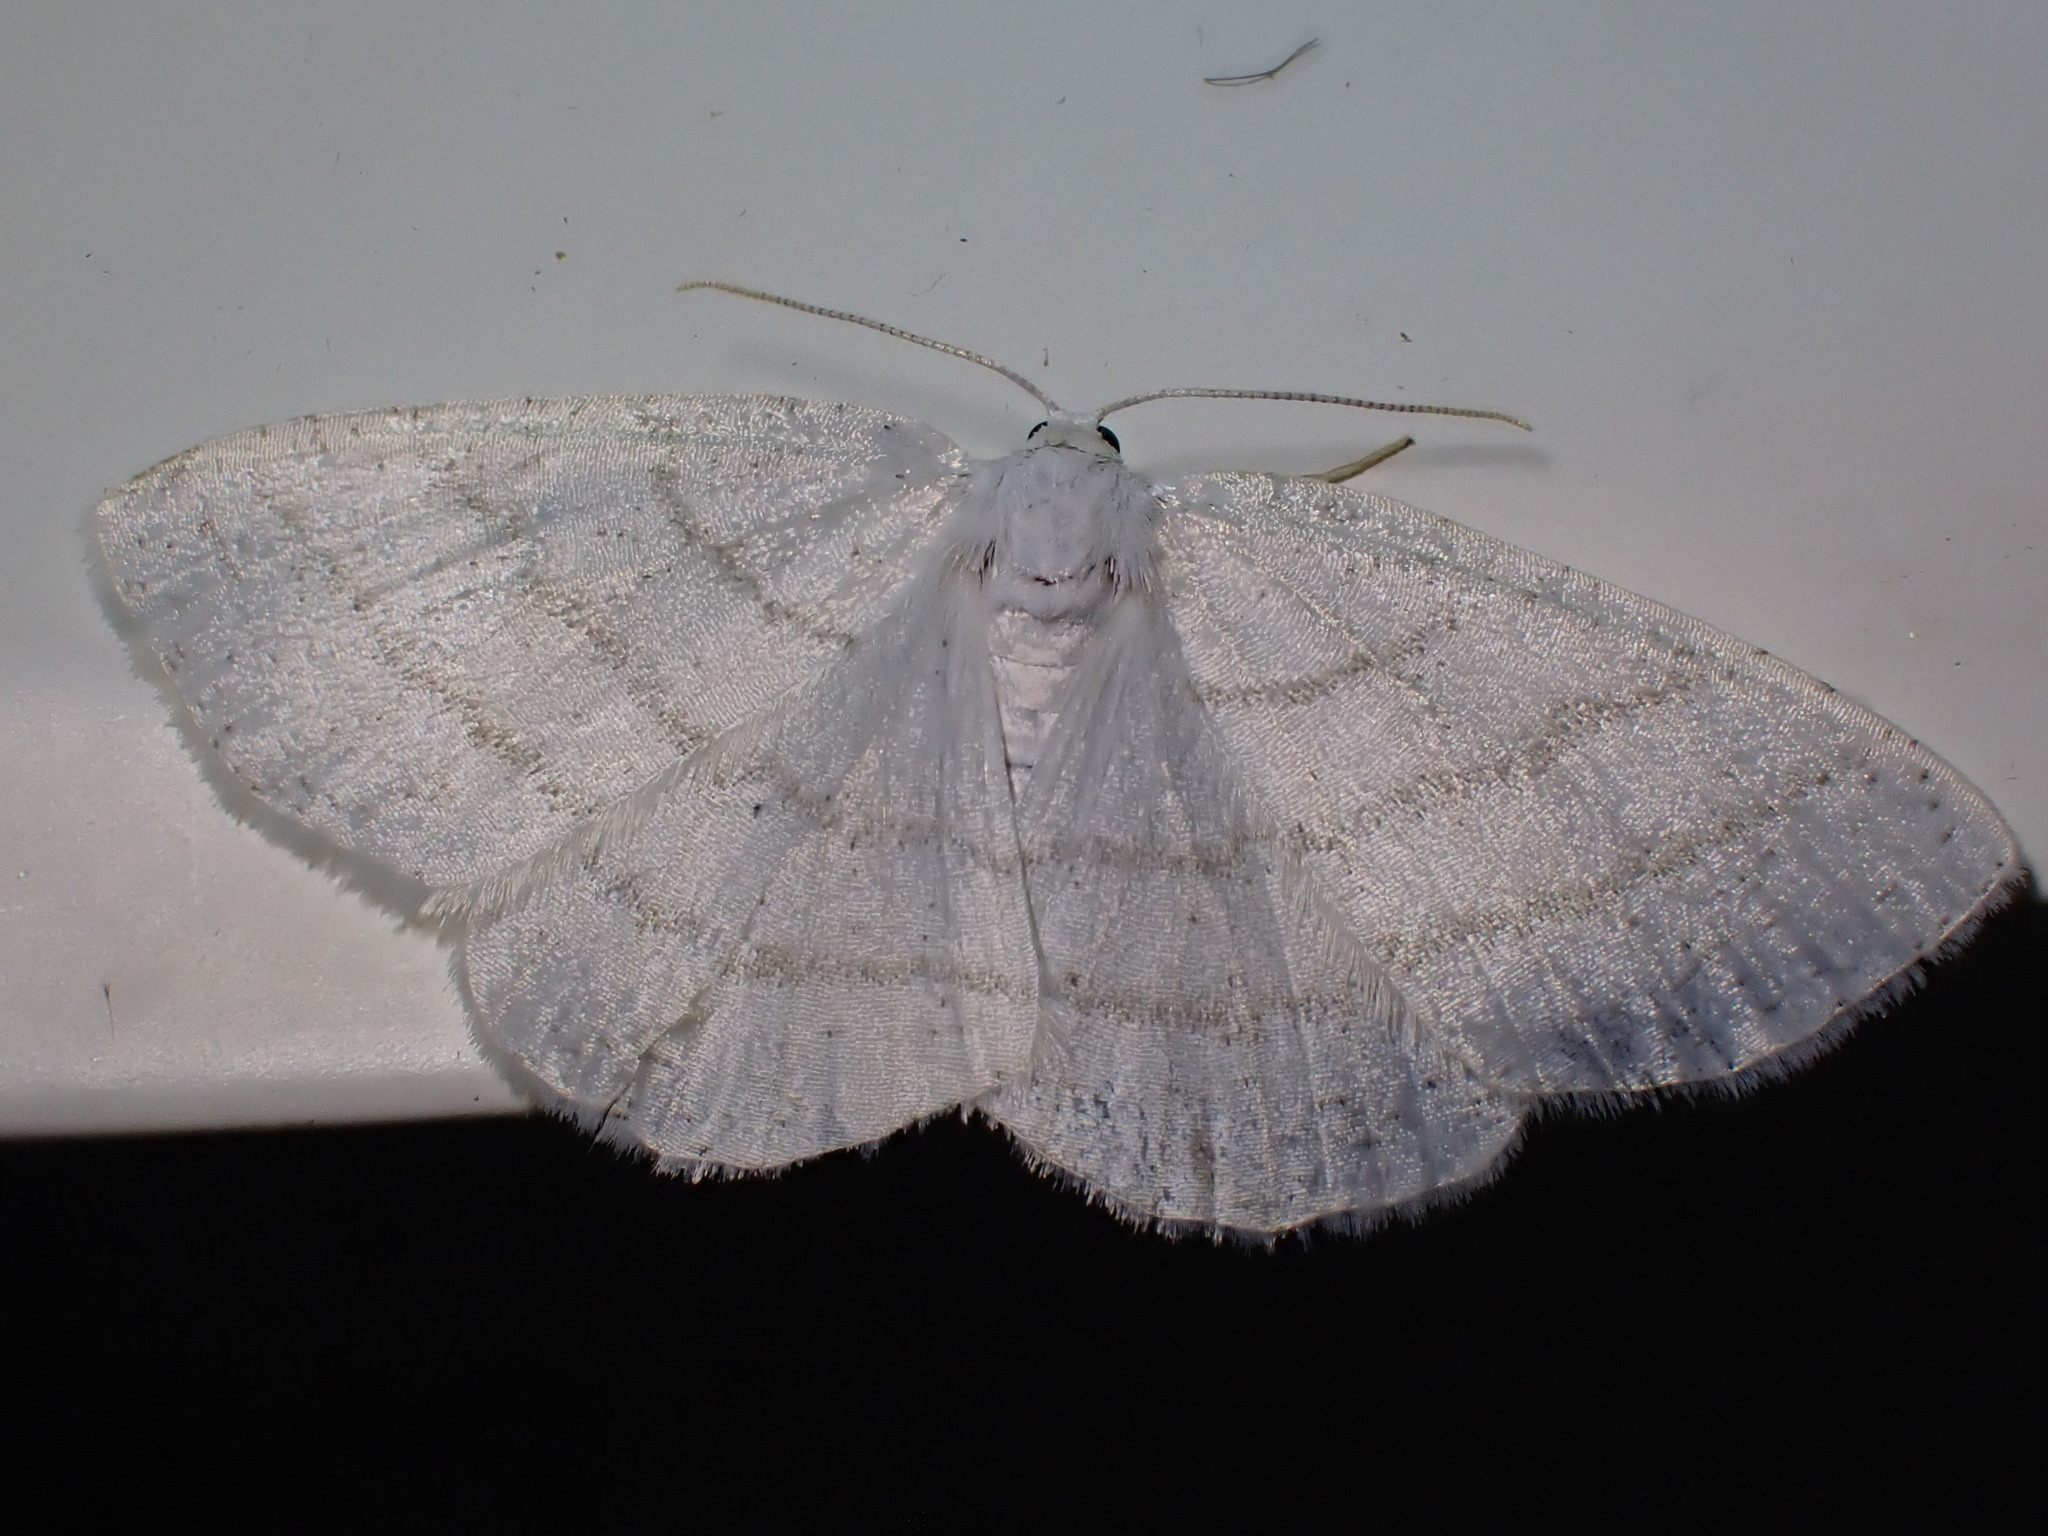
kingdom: Animalia
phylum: Arthropoda
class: Insecta
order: Lepidoptera
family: Geometridae
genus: Cabera
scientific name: Cabera pusaria
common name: Common white wave
